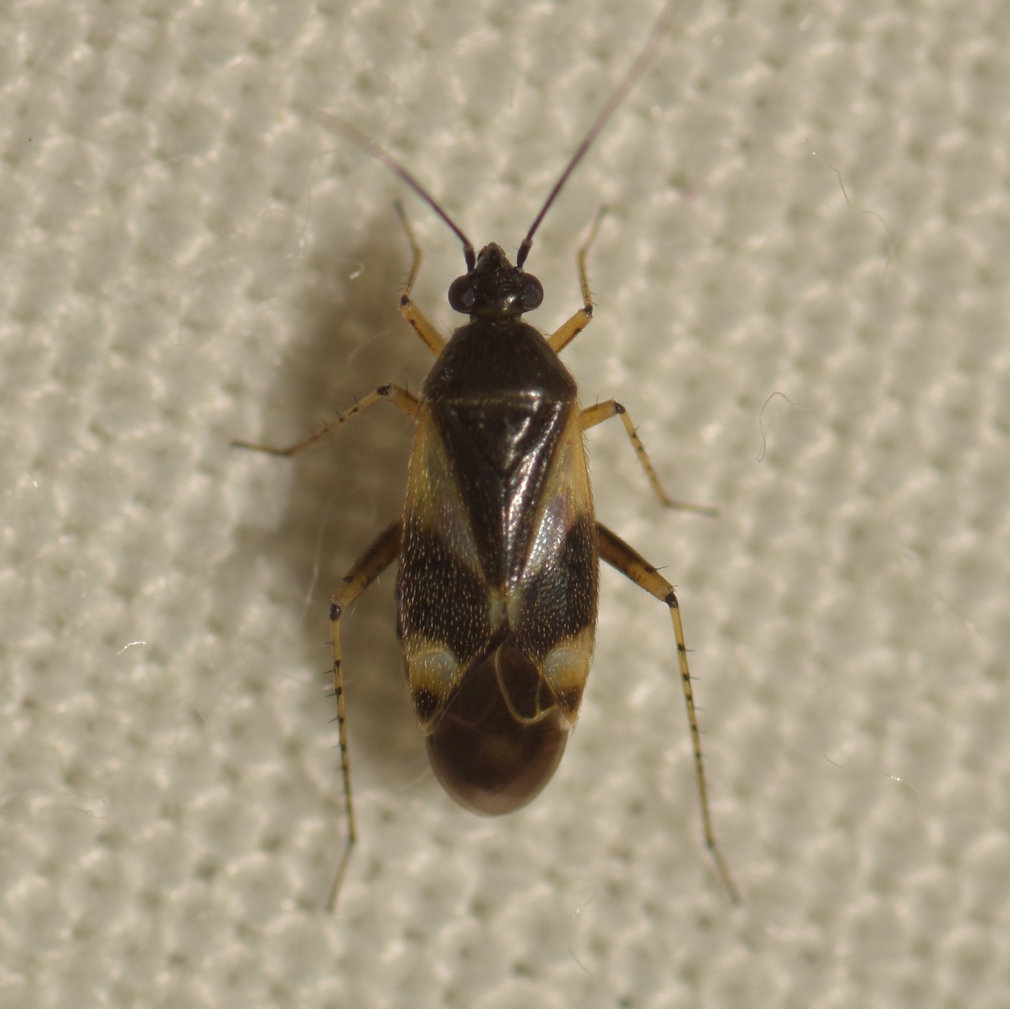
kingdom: Animalia
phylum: Arthropoda
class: Insecta
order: Hemiptera
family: Miridae
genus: Plagiognathus
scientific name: Plagiognathus obscurus
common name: Obscure plant bug
